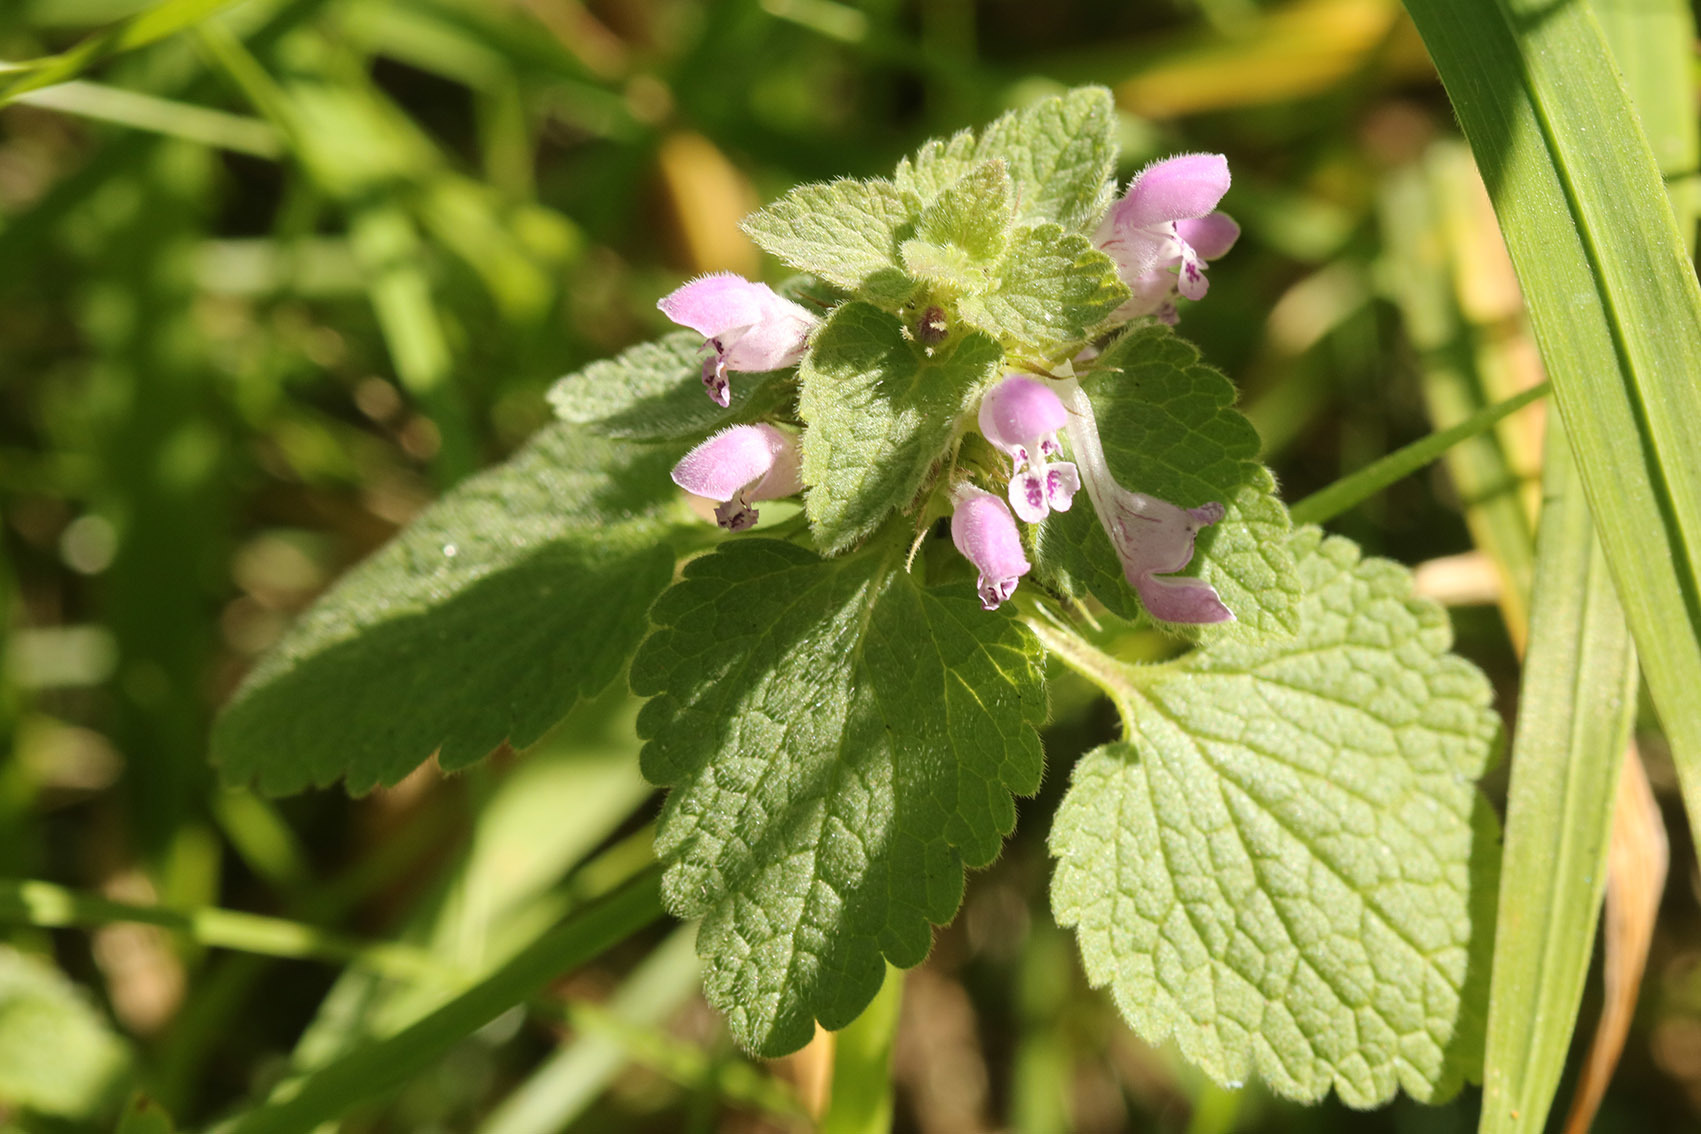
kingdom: Plantae
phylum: Tracheophyta
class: Magnoliopsida
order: Lamiales
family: Lamiaceae
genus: Lamium
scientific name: Lamium purpureum
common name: Red dead-nettle
